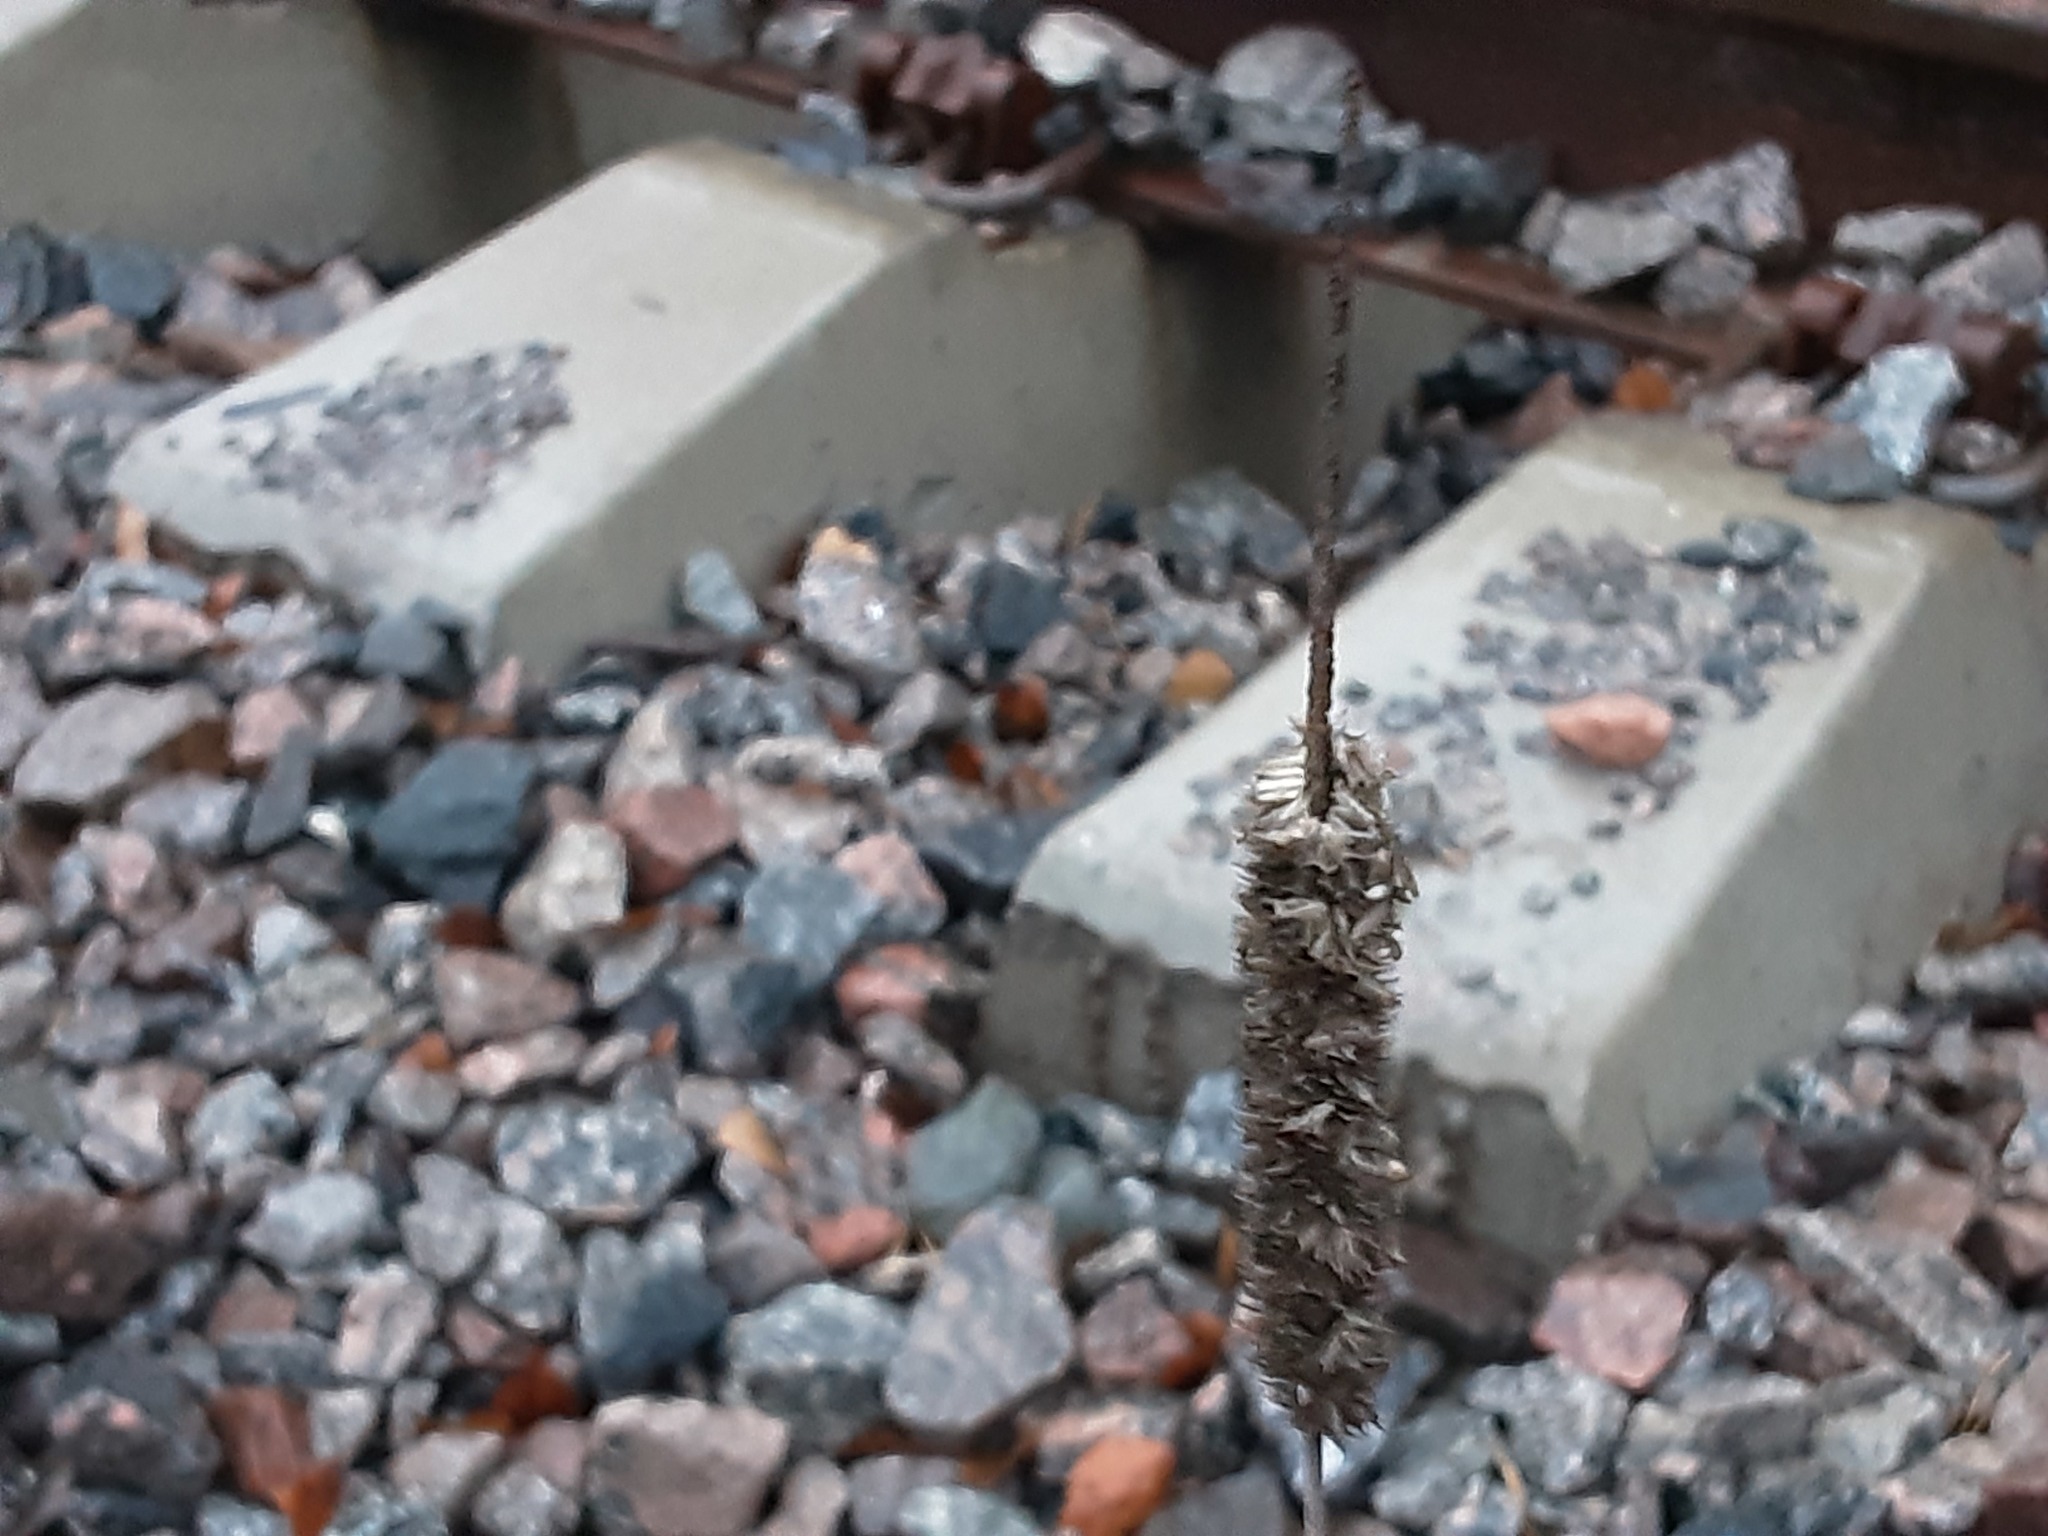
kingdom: Plantae
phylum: Tracheophyta
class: Liliopsida
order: Poales
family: Poaceae
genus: Phleum
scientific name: Phleum pratense
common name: Timothy grass
